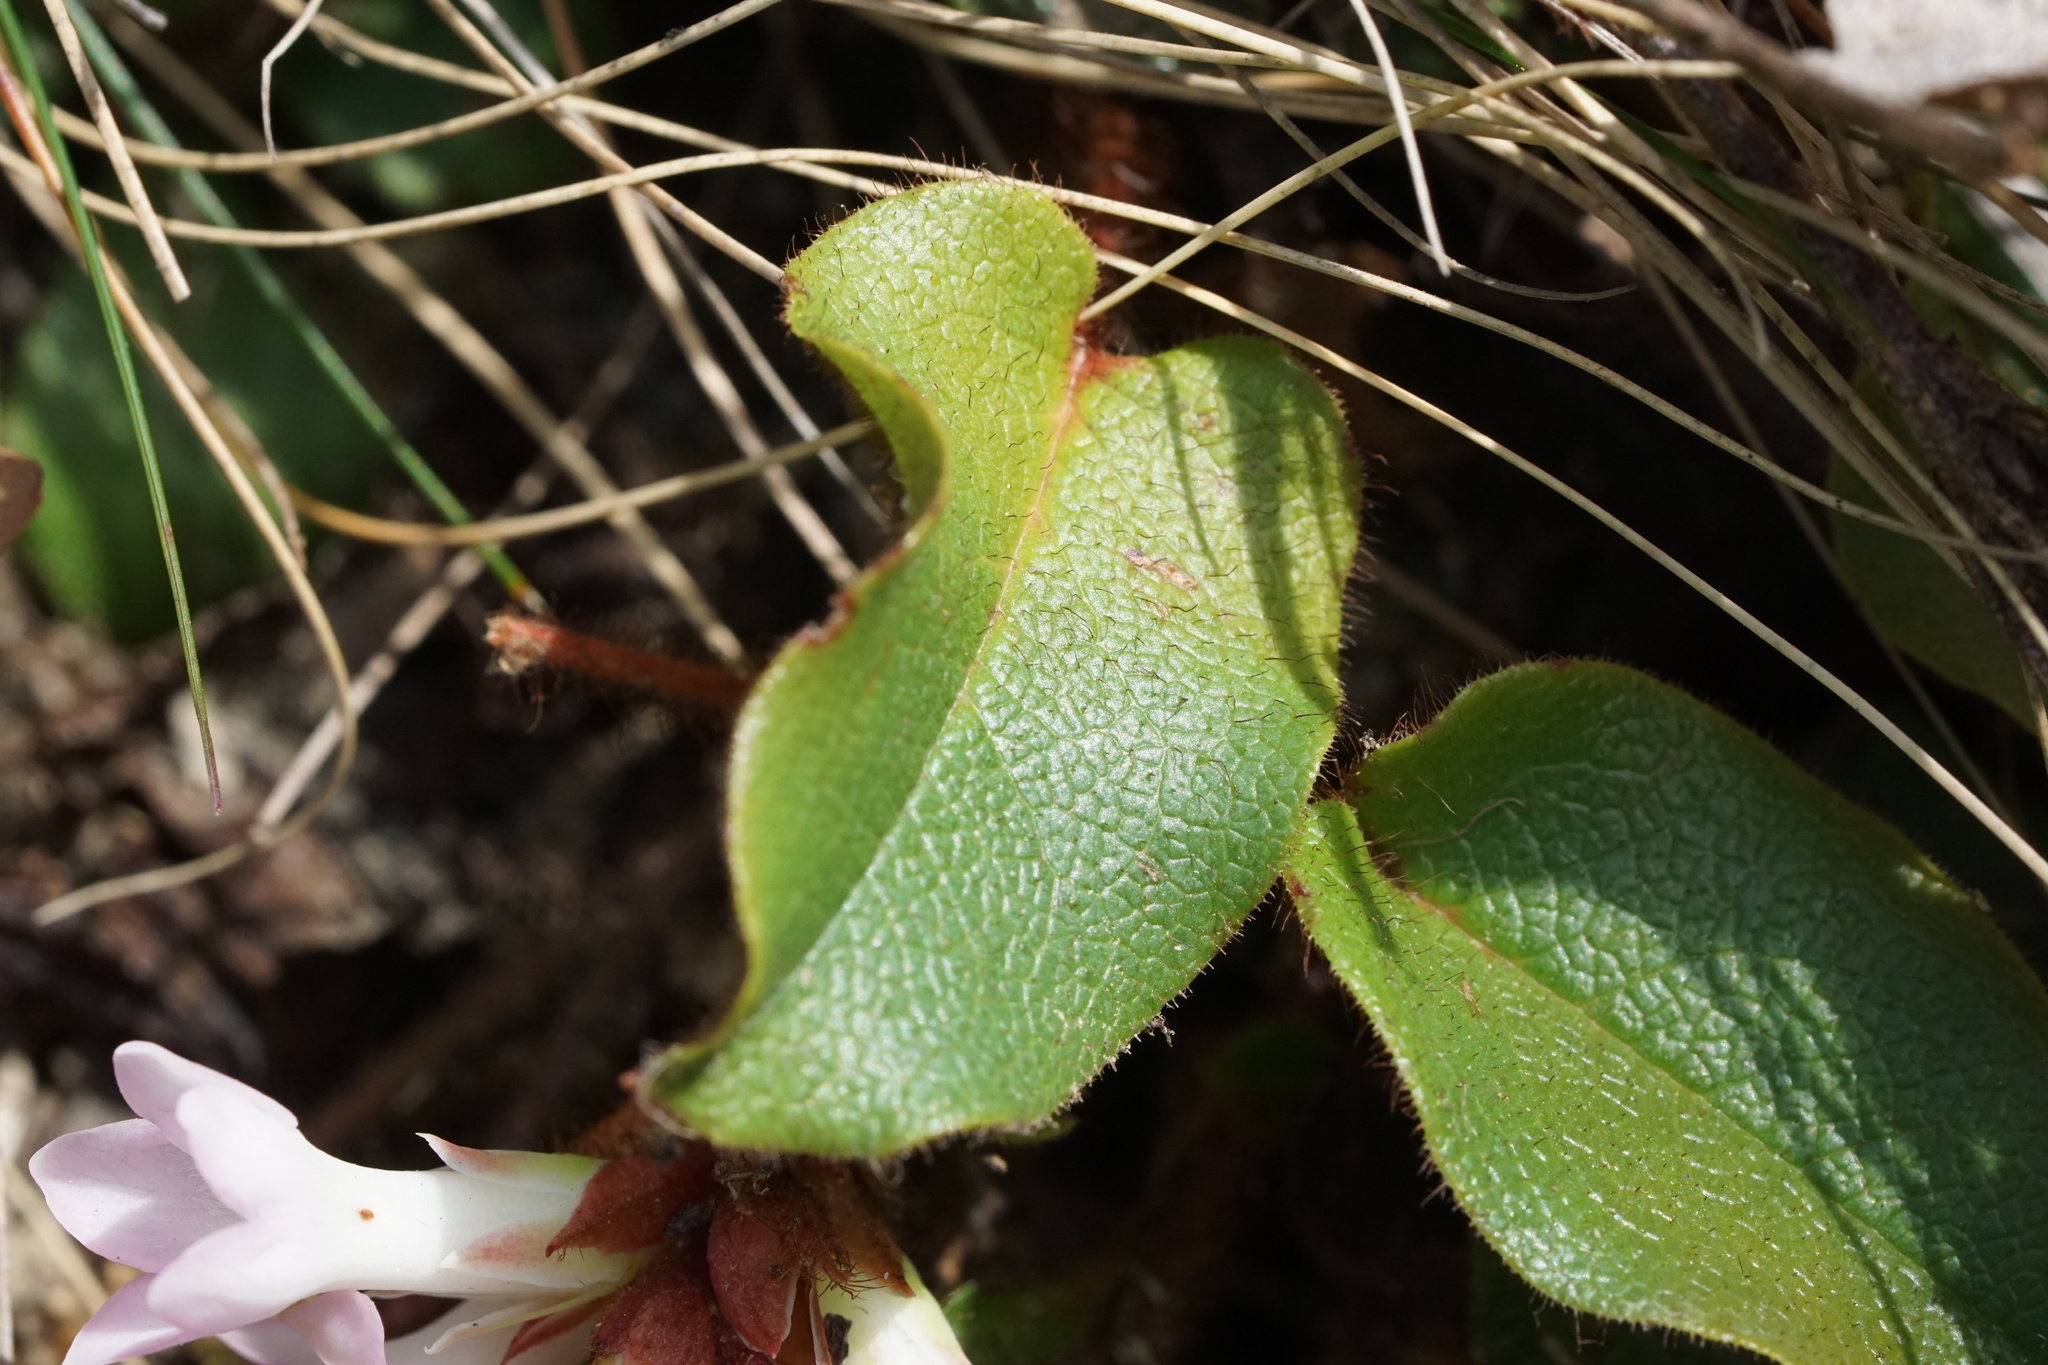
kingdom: Plantae
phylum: Tracheophyta
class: Magnoliopsida
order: Ericales
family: Ericaceae
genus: Epigaea
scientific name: Epigaea repens
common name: Gravelroot
